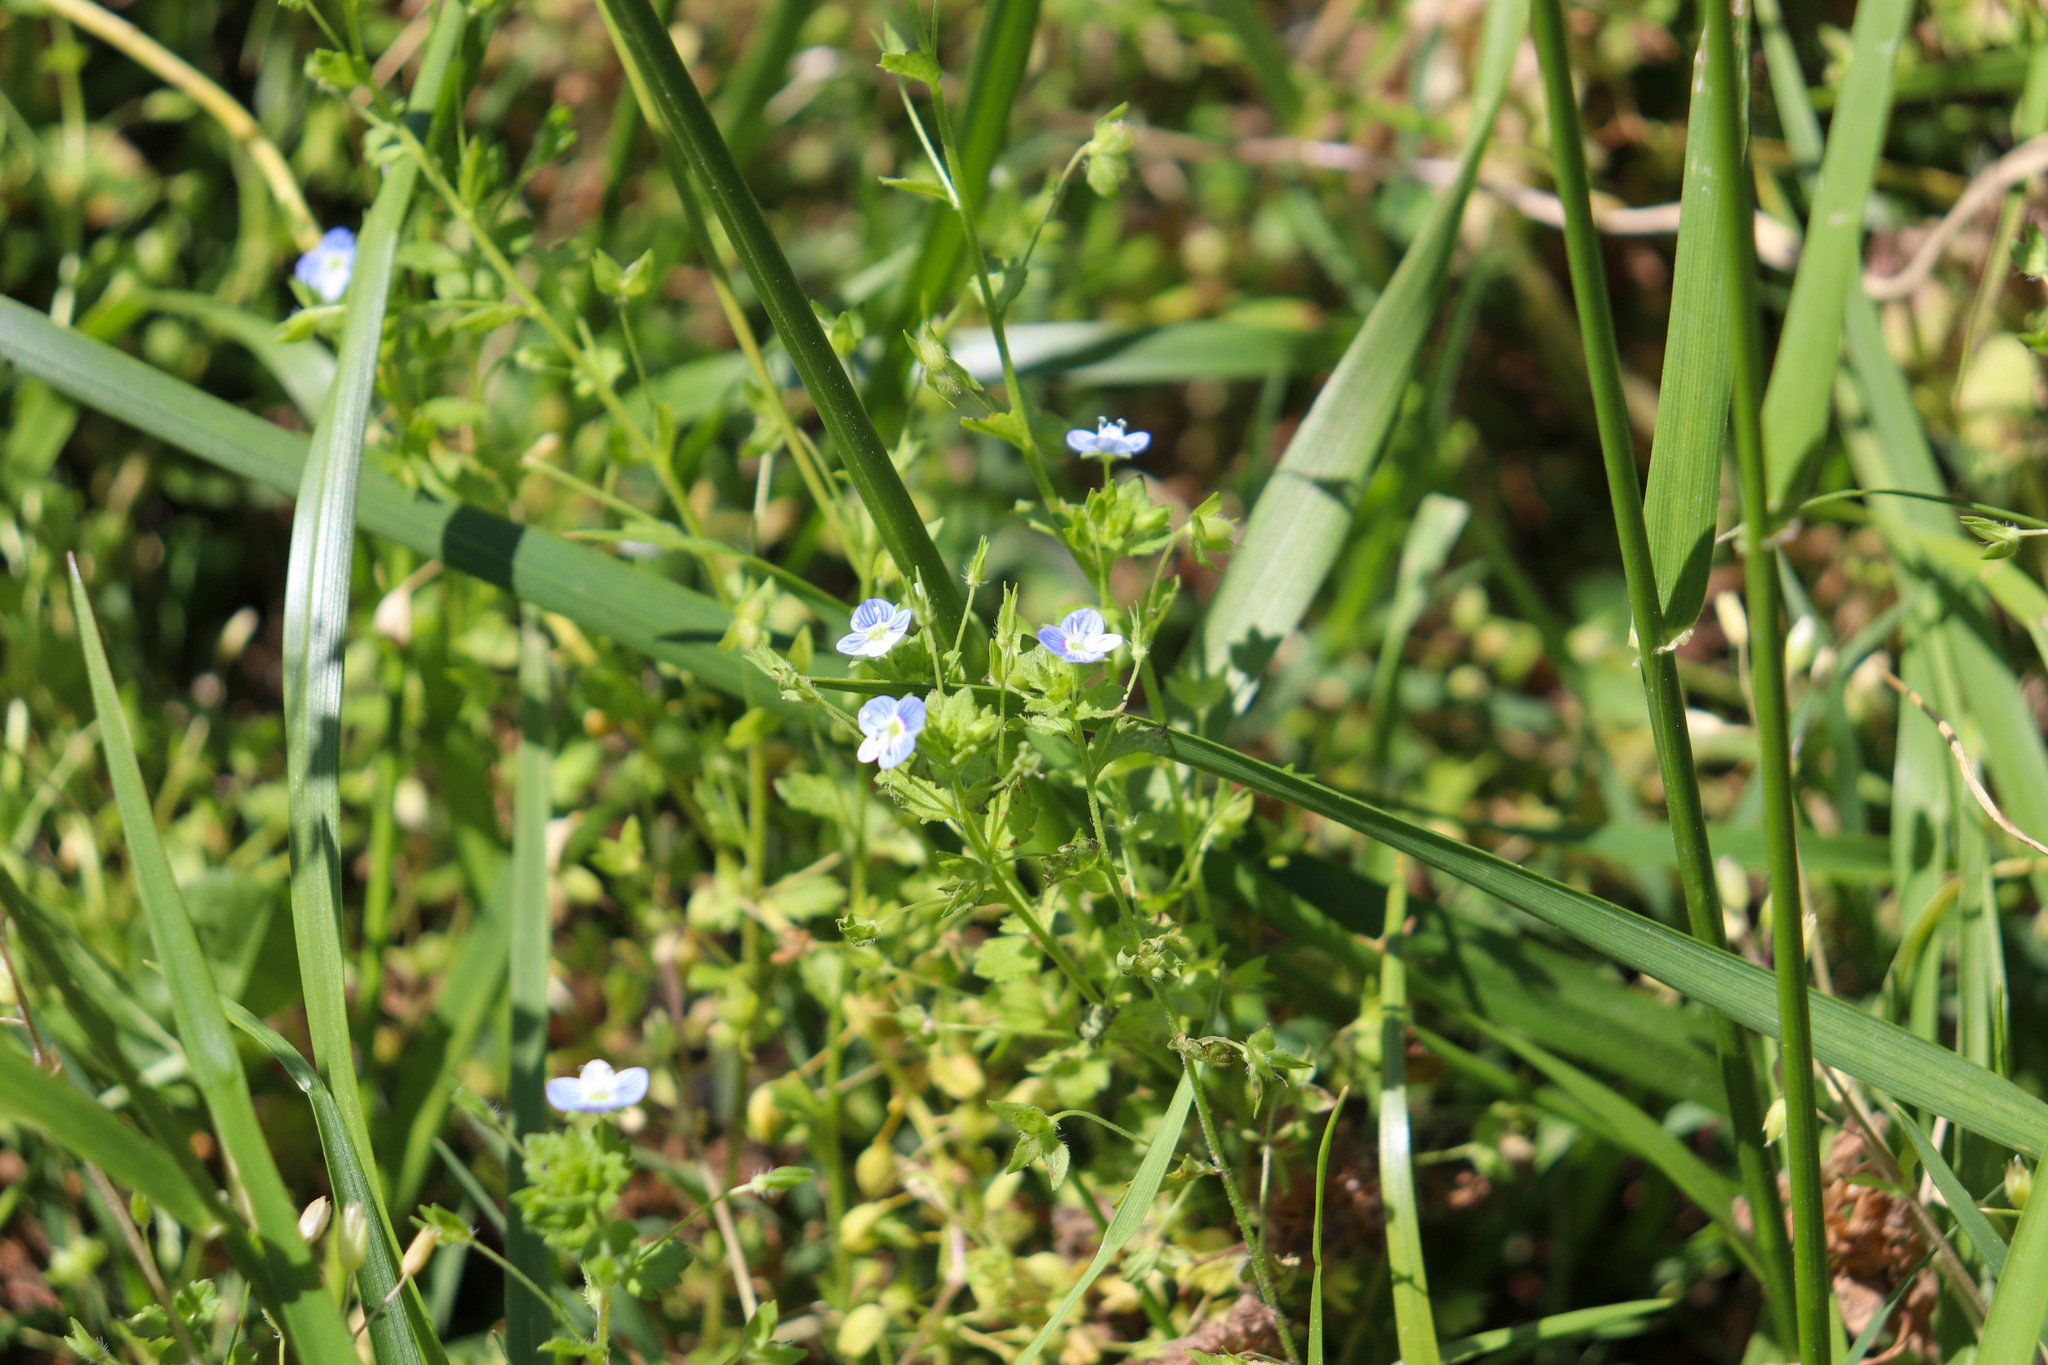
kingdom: Plantae
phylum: Tracheophyta
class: Magnoliopsida
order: Lamiales
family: Plantaginaceae
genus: Veronica
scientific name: Veronica persica
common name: Common field-speedwell
